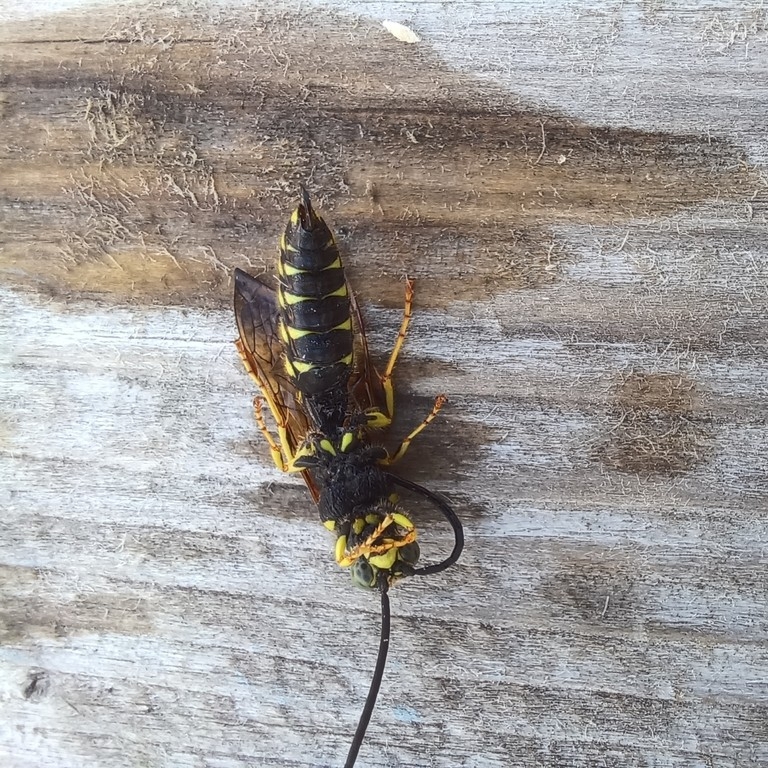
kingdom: Animalia
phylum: Arthropoda
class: Insecta
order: Hymenoptera
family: Tiphiidae
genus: Myzinum
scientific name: Myzinum quinquecinctum
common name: Five-banded thynnid wasp
